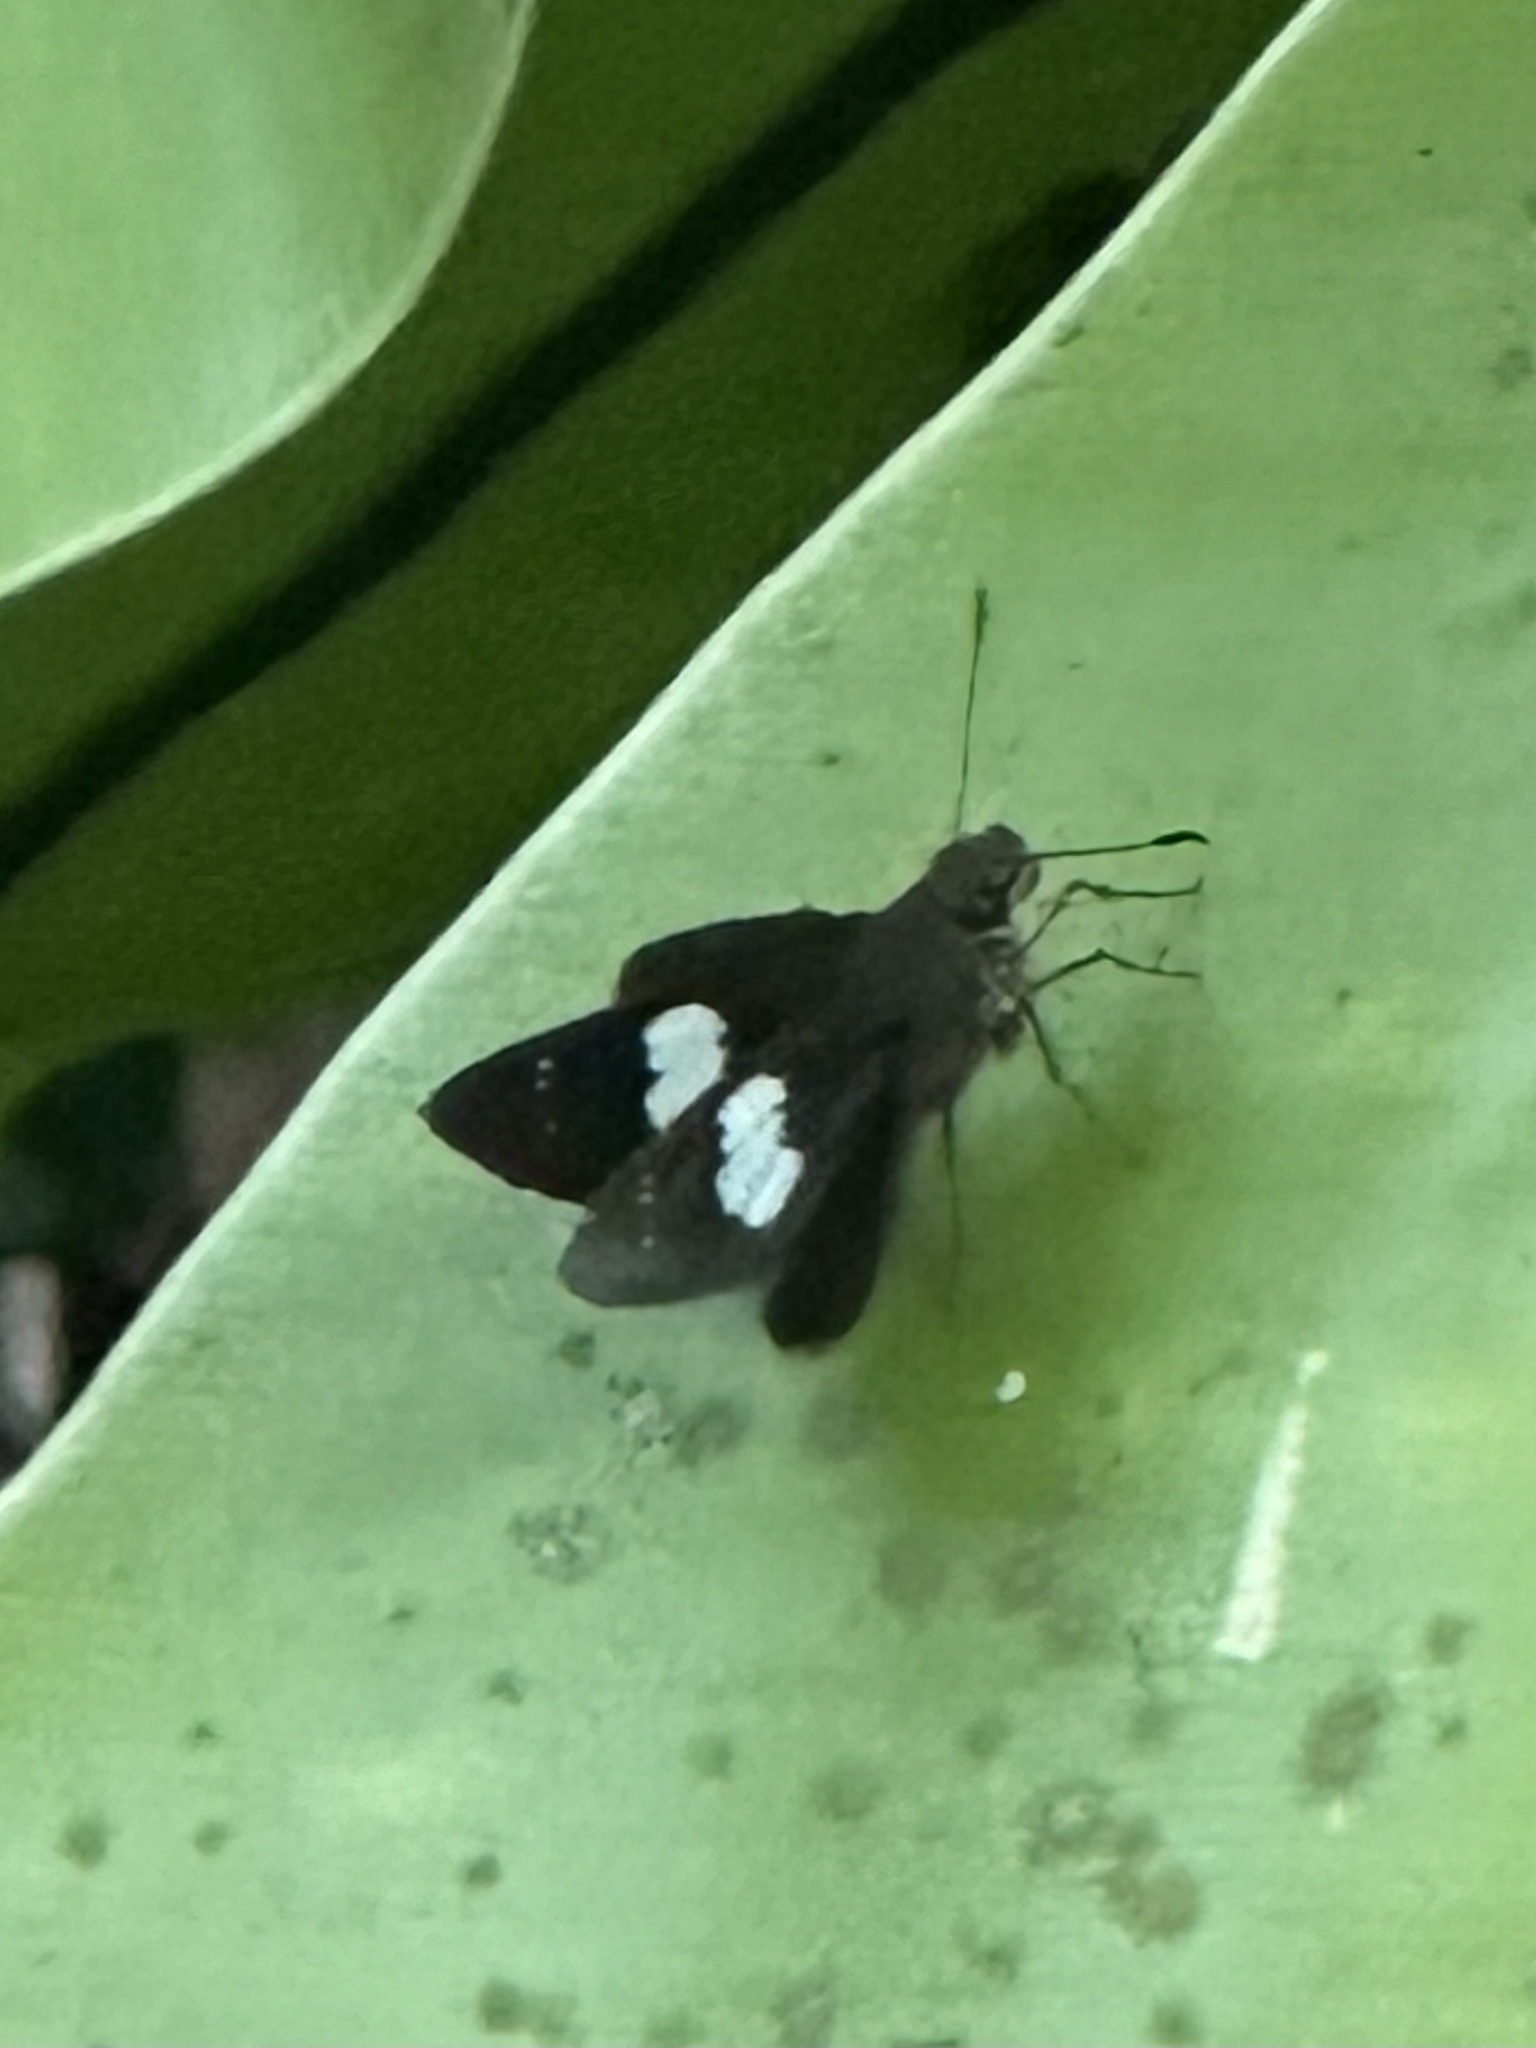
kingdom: Animalia
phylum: Arthropoda
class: Insecta
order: Lepidoptera
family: Hesperiidae
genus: Notocrypta
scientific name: Notocrypta curvifascia
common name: Restricted demon
